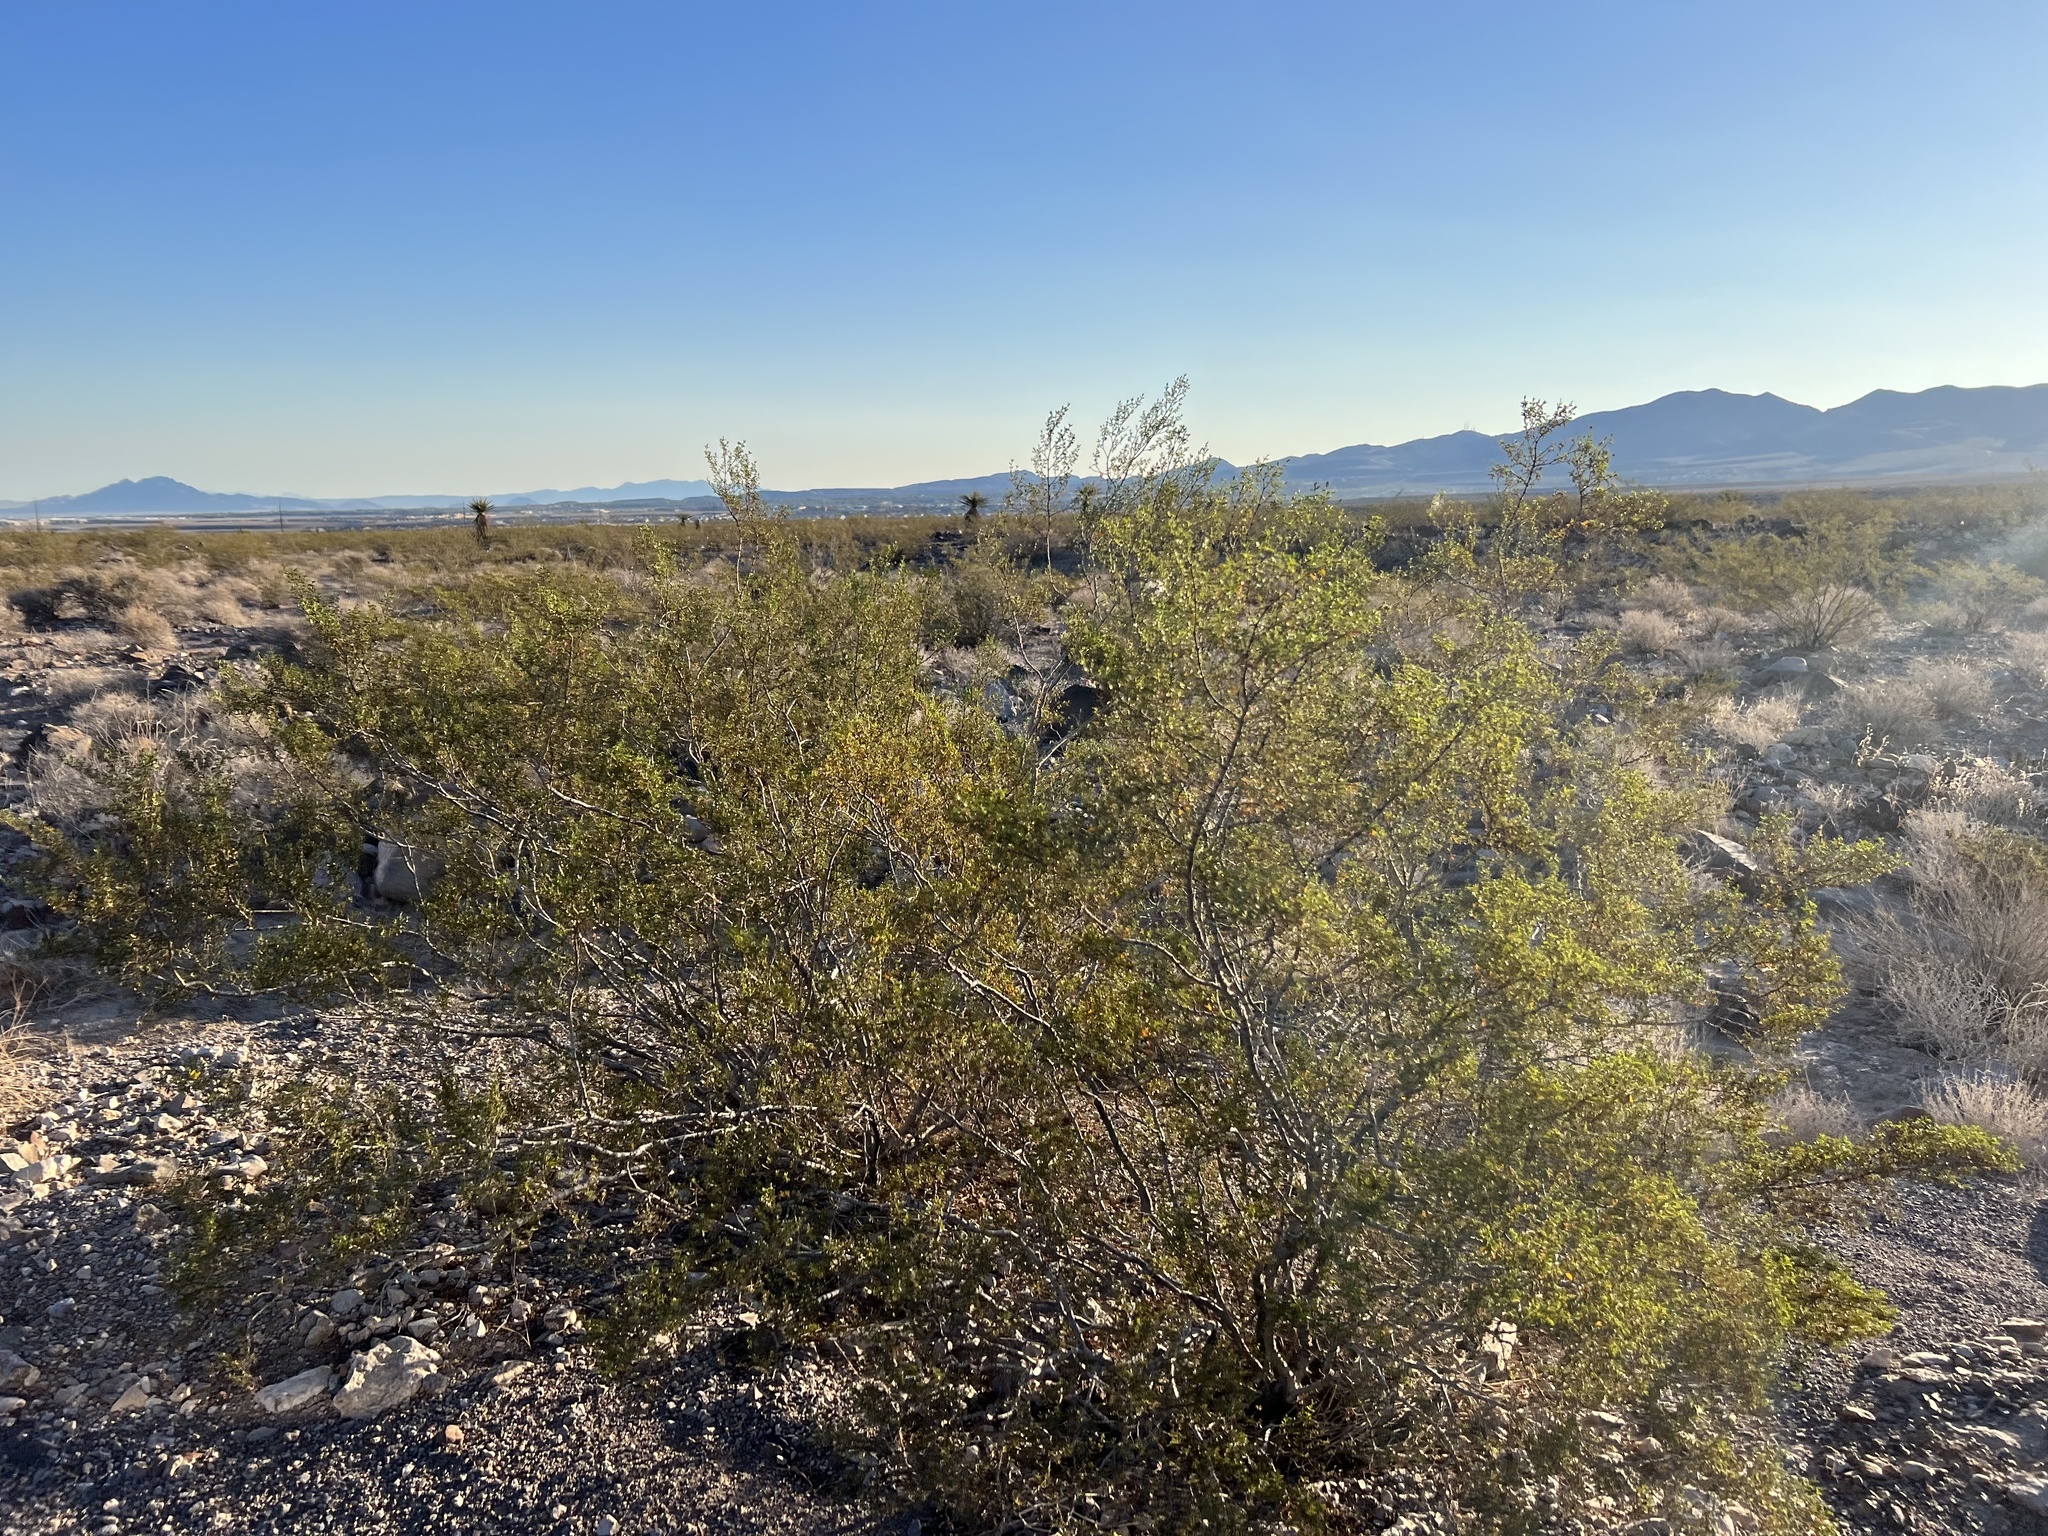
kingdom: Plantae
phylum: Tracheophyta
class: Magnoliopsida
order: Zygophyllales
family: Zygophyllaceae
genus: Larrea
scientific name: Larrea tridentata
